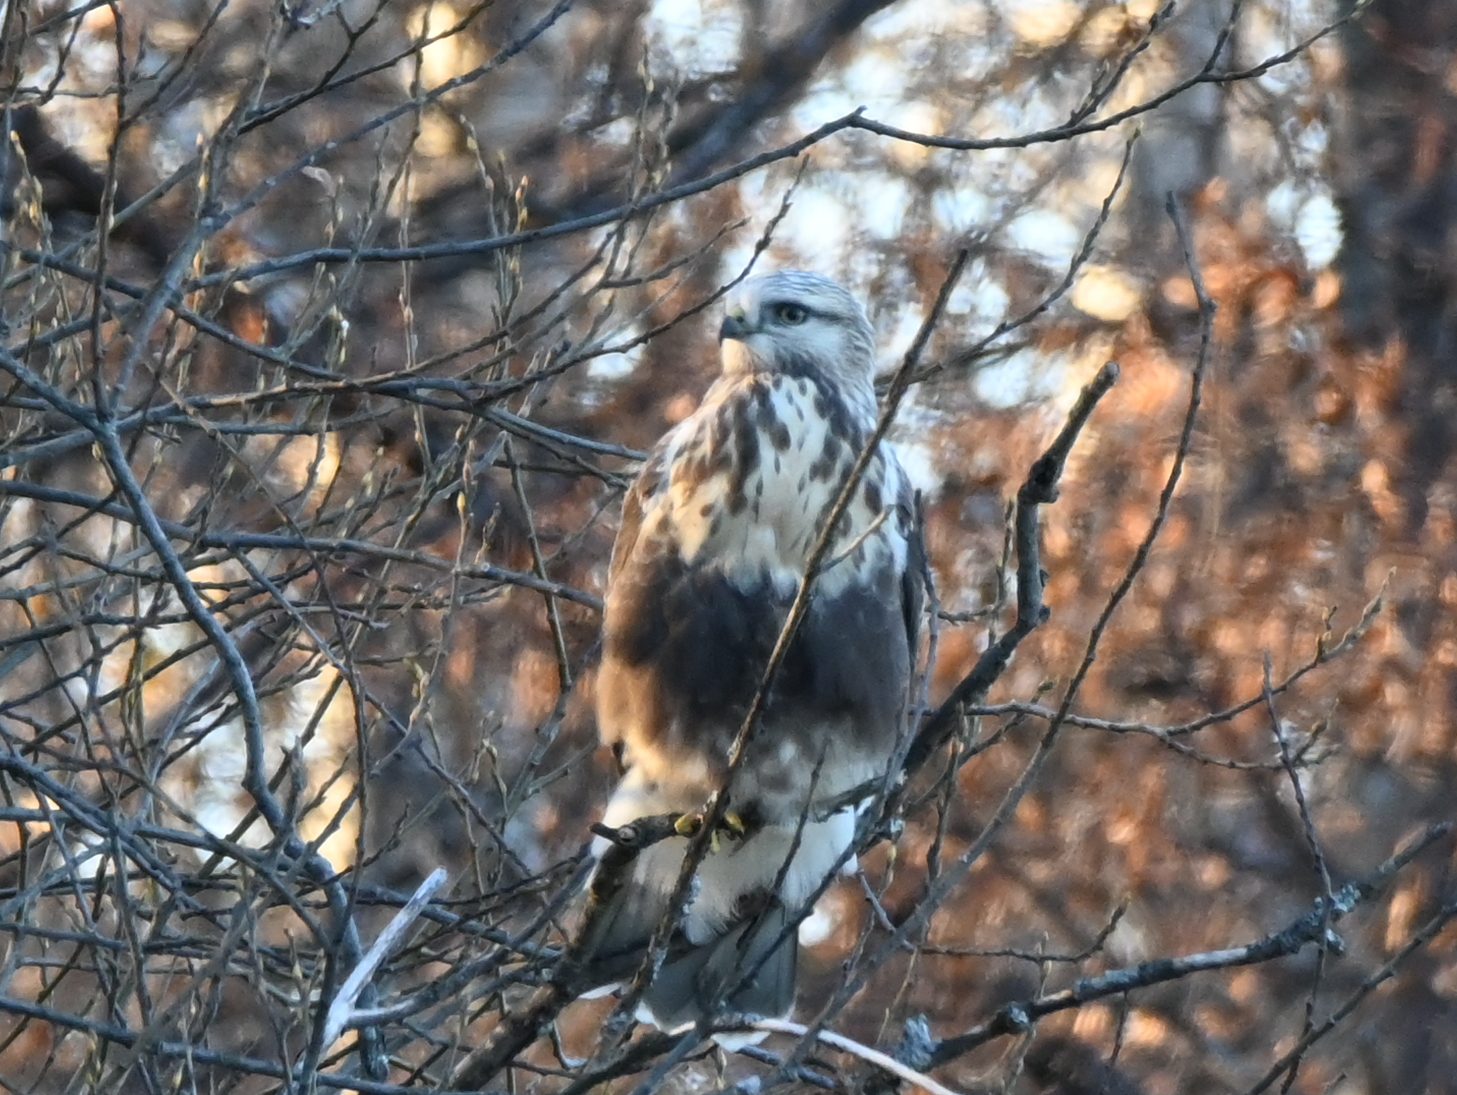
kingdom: Animalia
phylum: Chordata
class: Aves
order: Accipitriformes
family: Accipitridae
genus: Buteo
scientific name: Buteo lagopus
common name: Rough-legged buzzard
